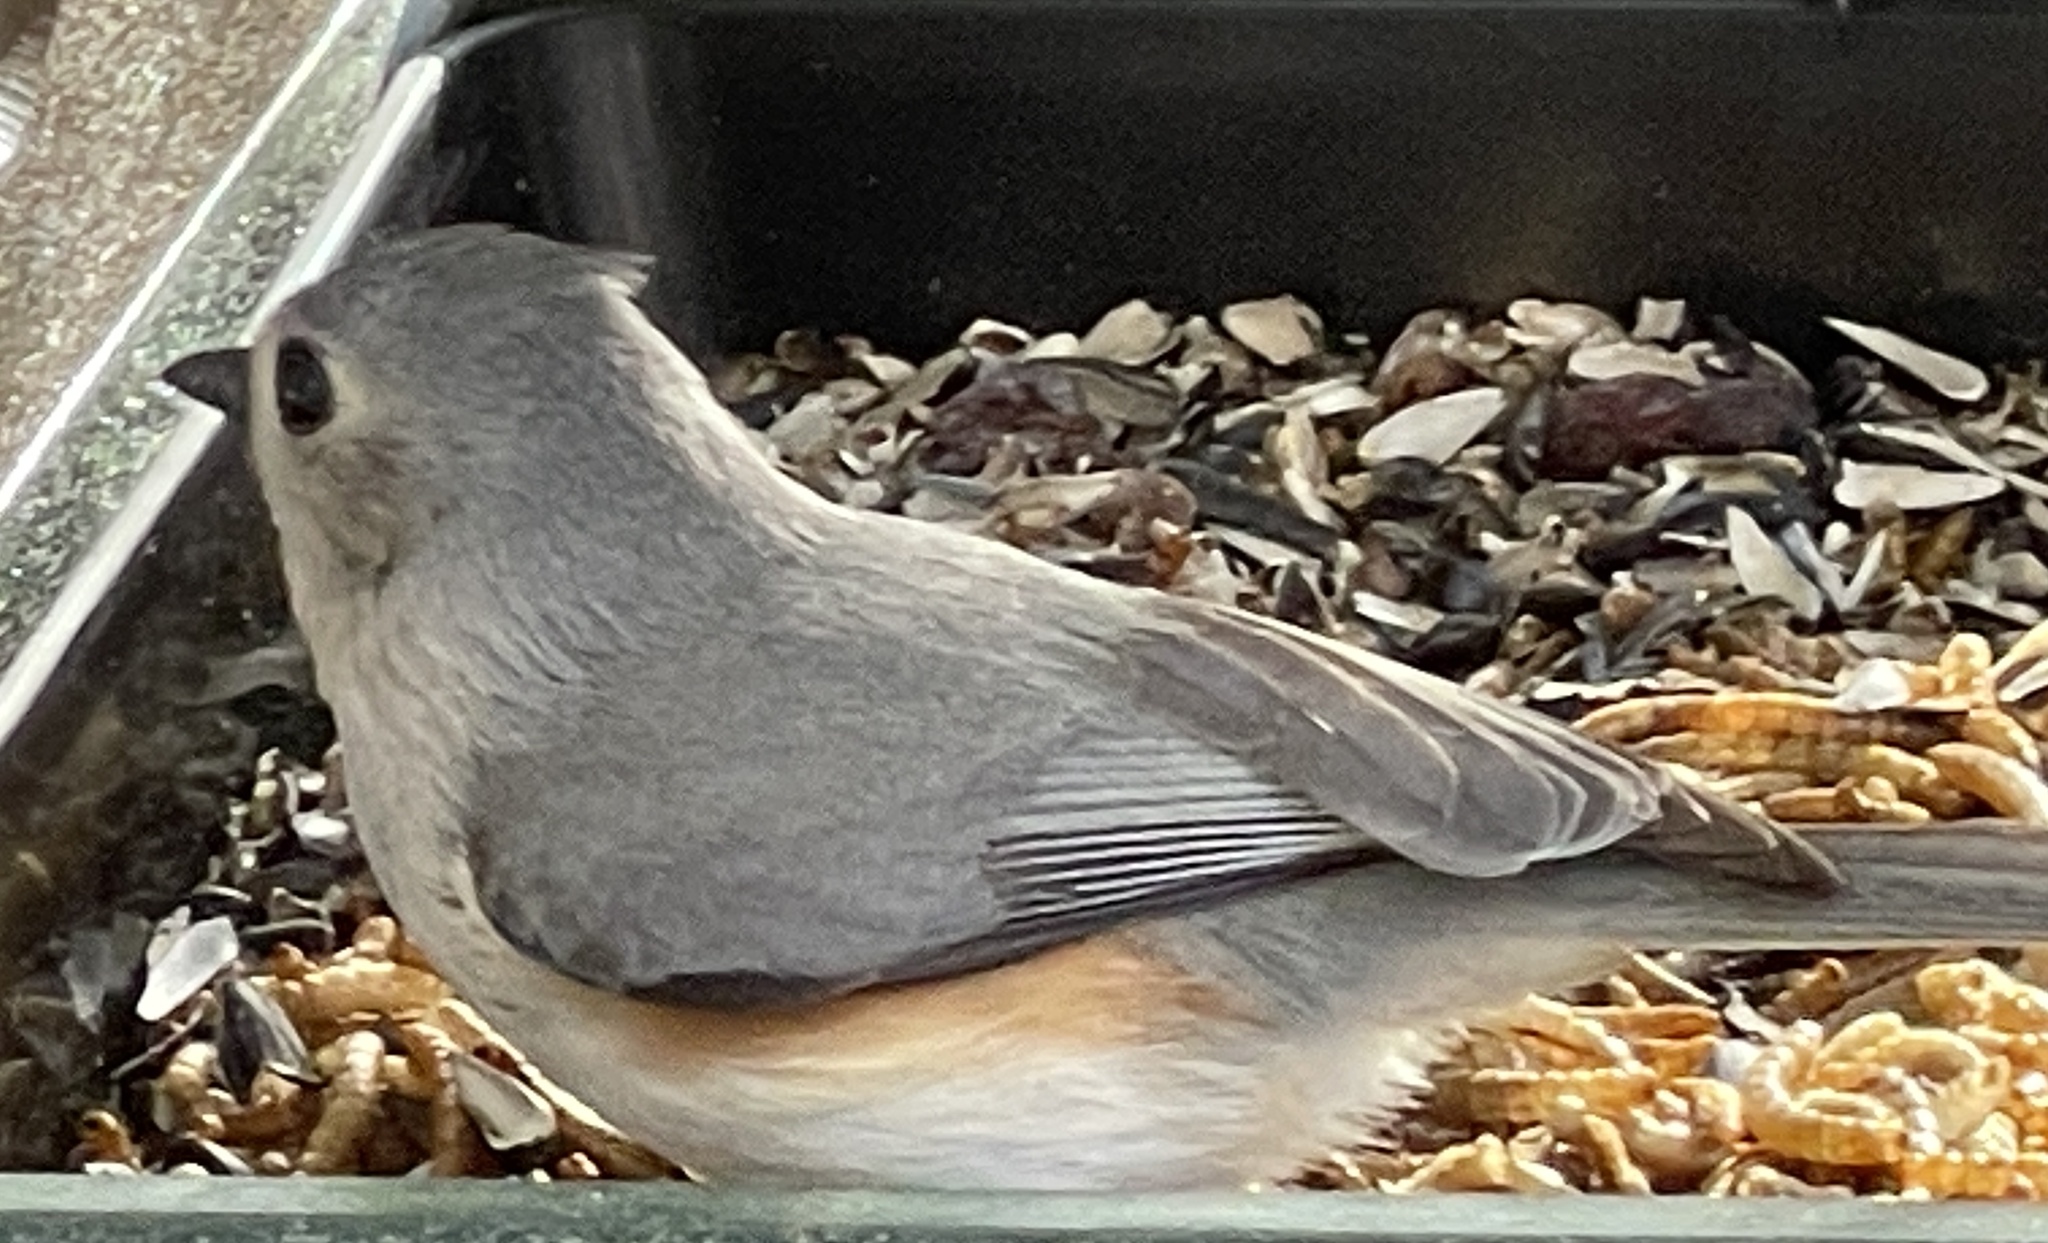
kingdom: Animalia
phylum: Chordata
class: Aves
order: Passeriformes
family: Paridae
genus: Baeolophus
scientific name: Baeolophus bicolor
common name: Tufted titmouse
